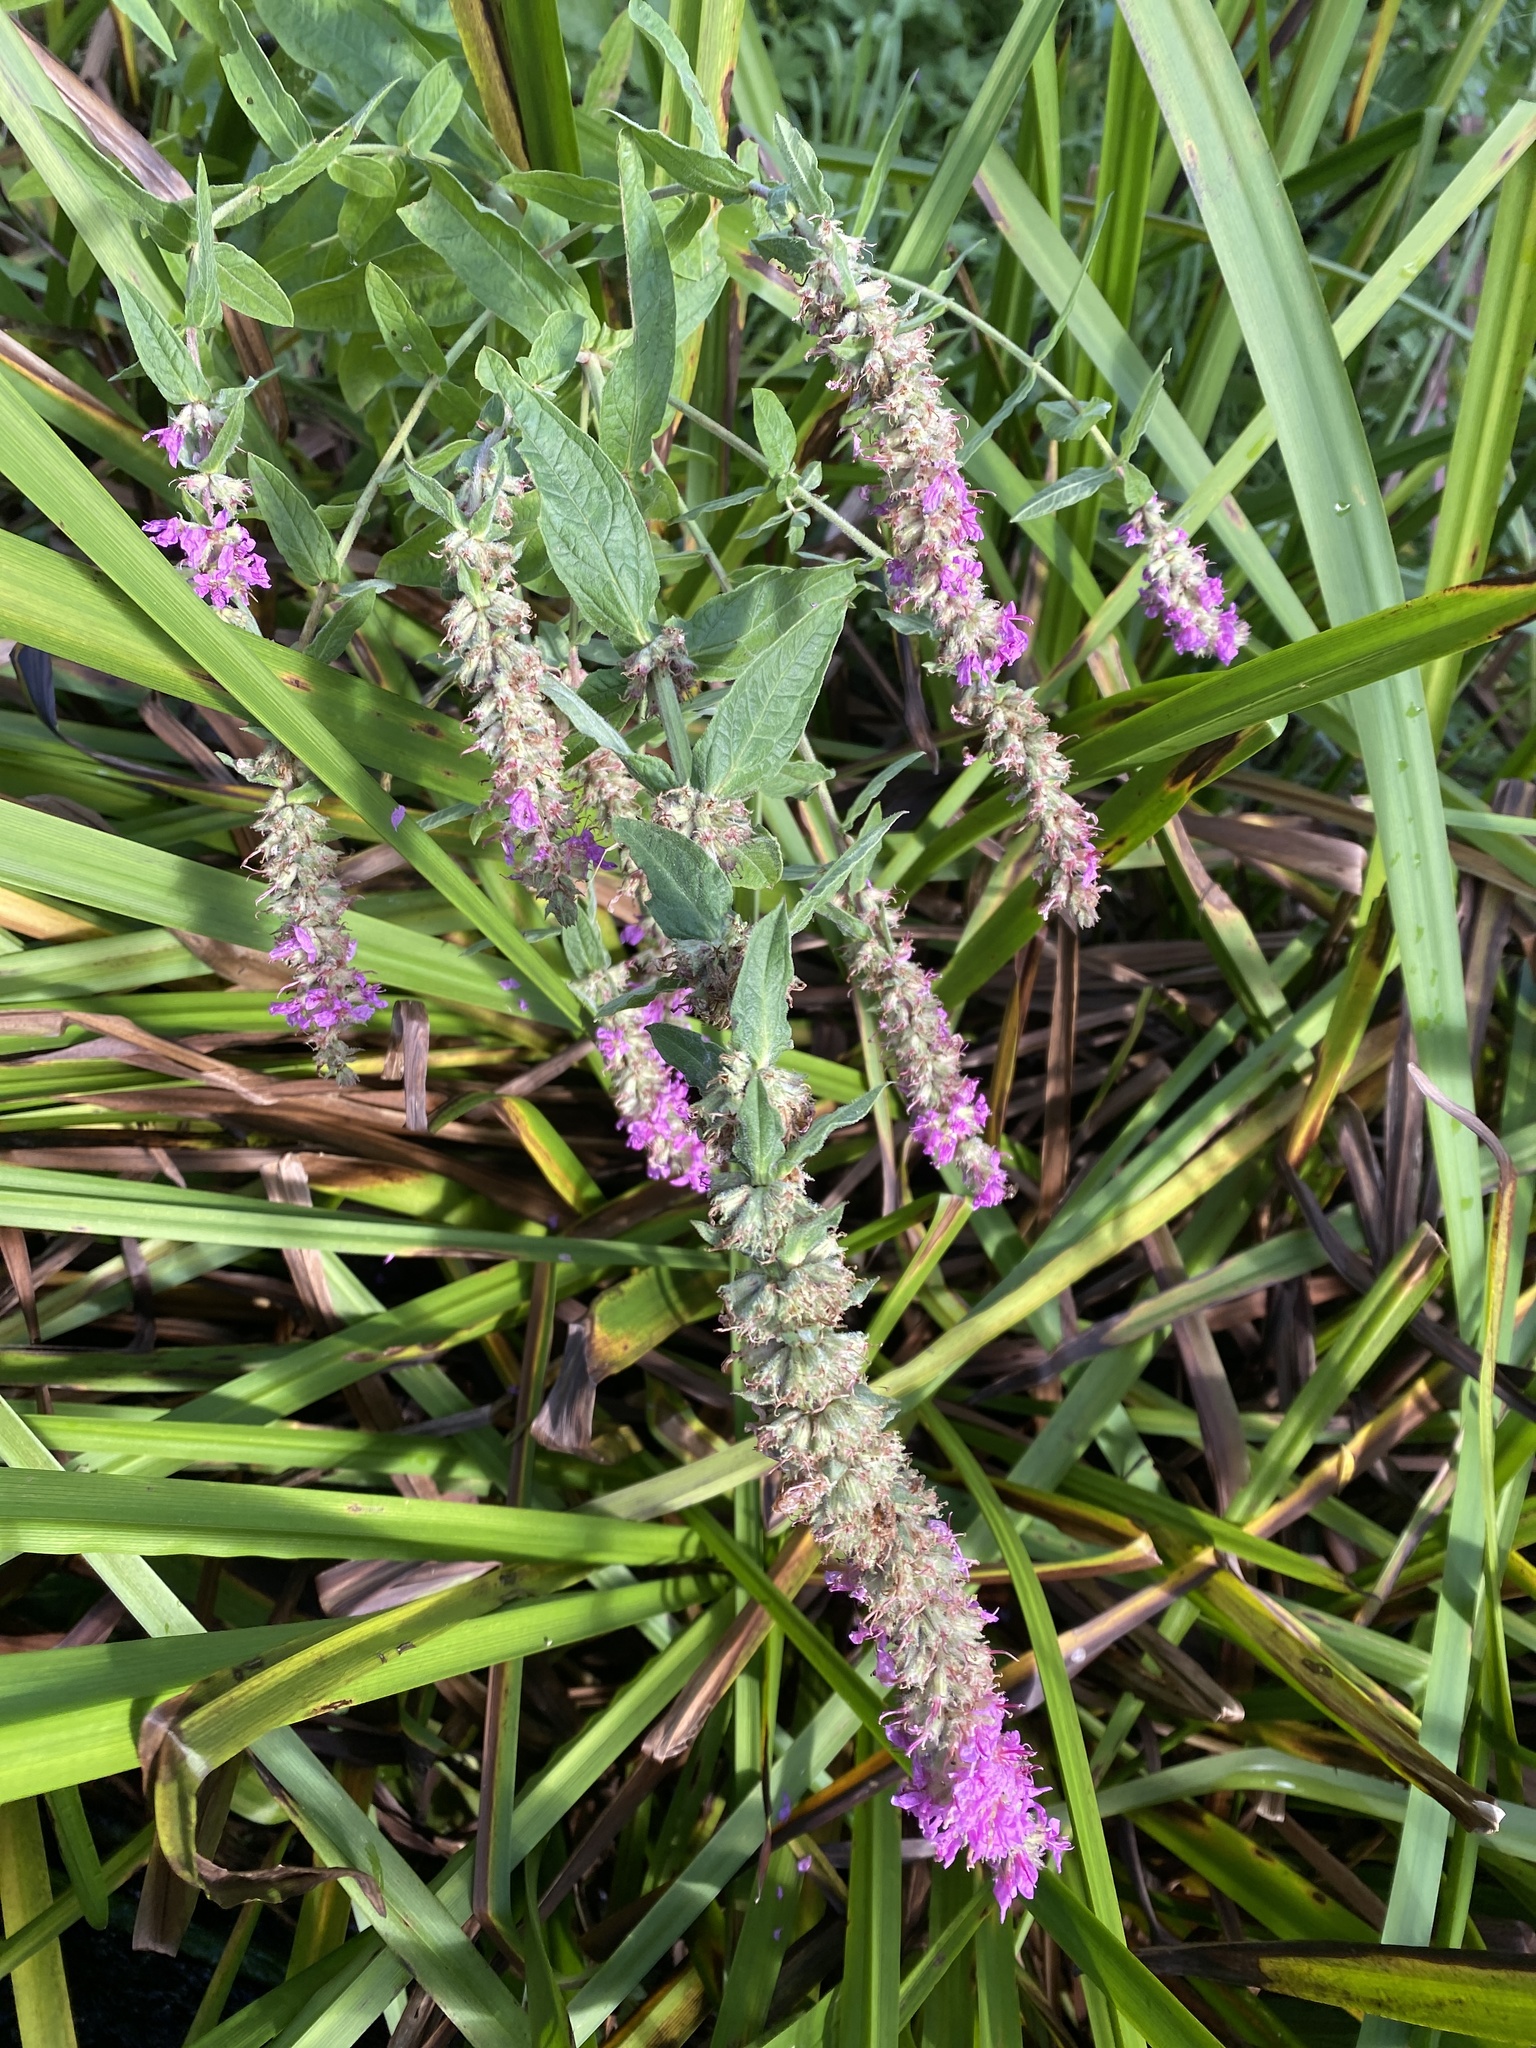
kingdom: Plantae
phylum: Tracheophyta
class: Magnoliopsida
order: Myrtales
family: Lythraceae
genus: Lythrum
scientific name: Lythrum salicaria
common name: Purple loosestrife
